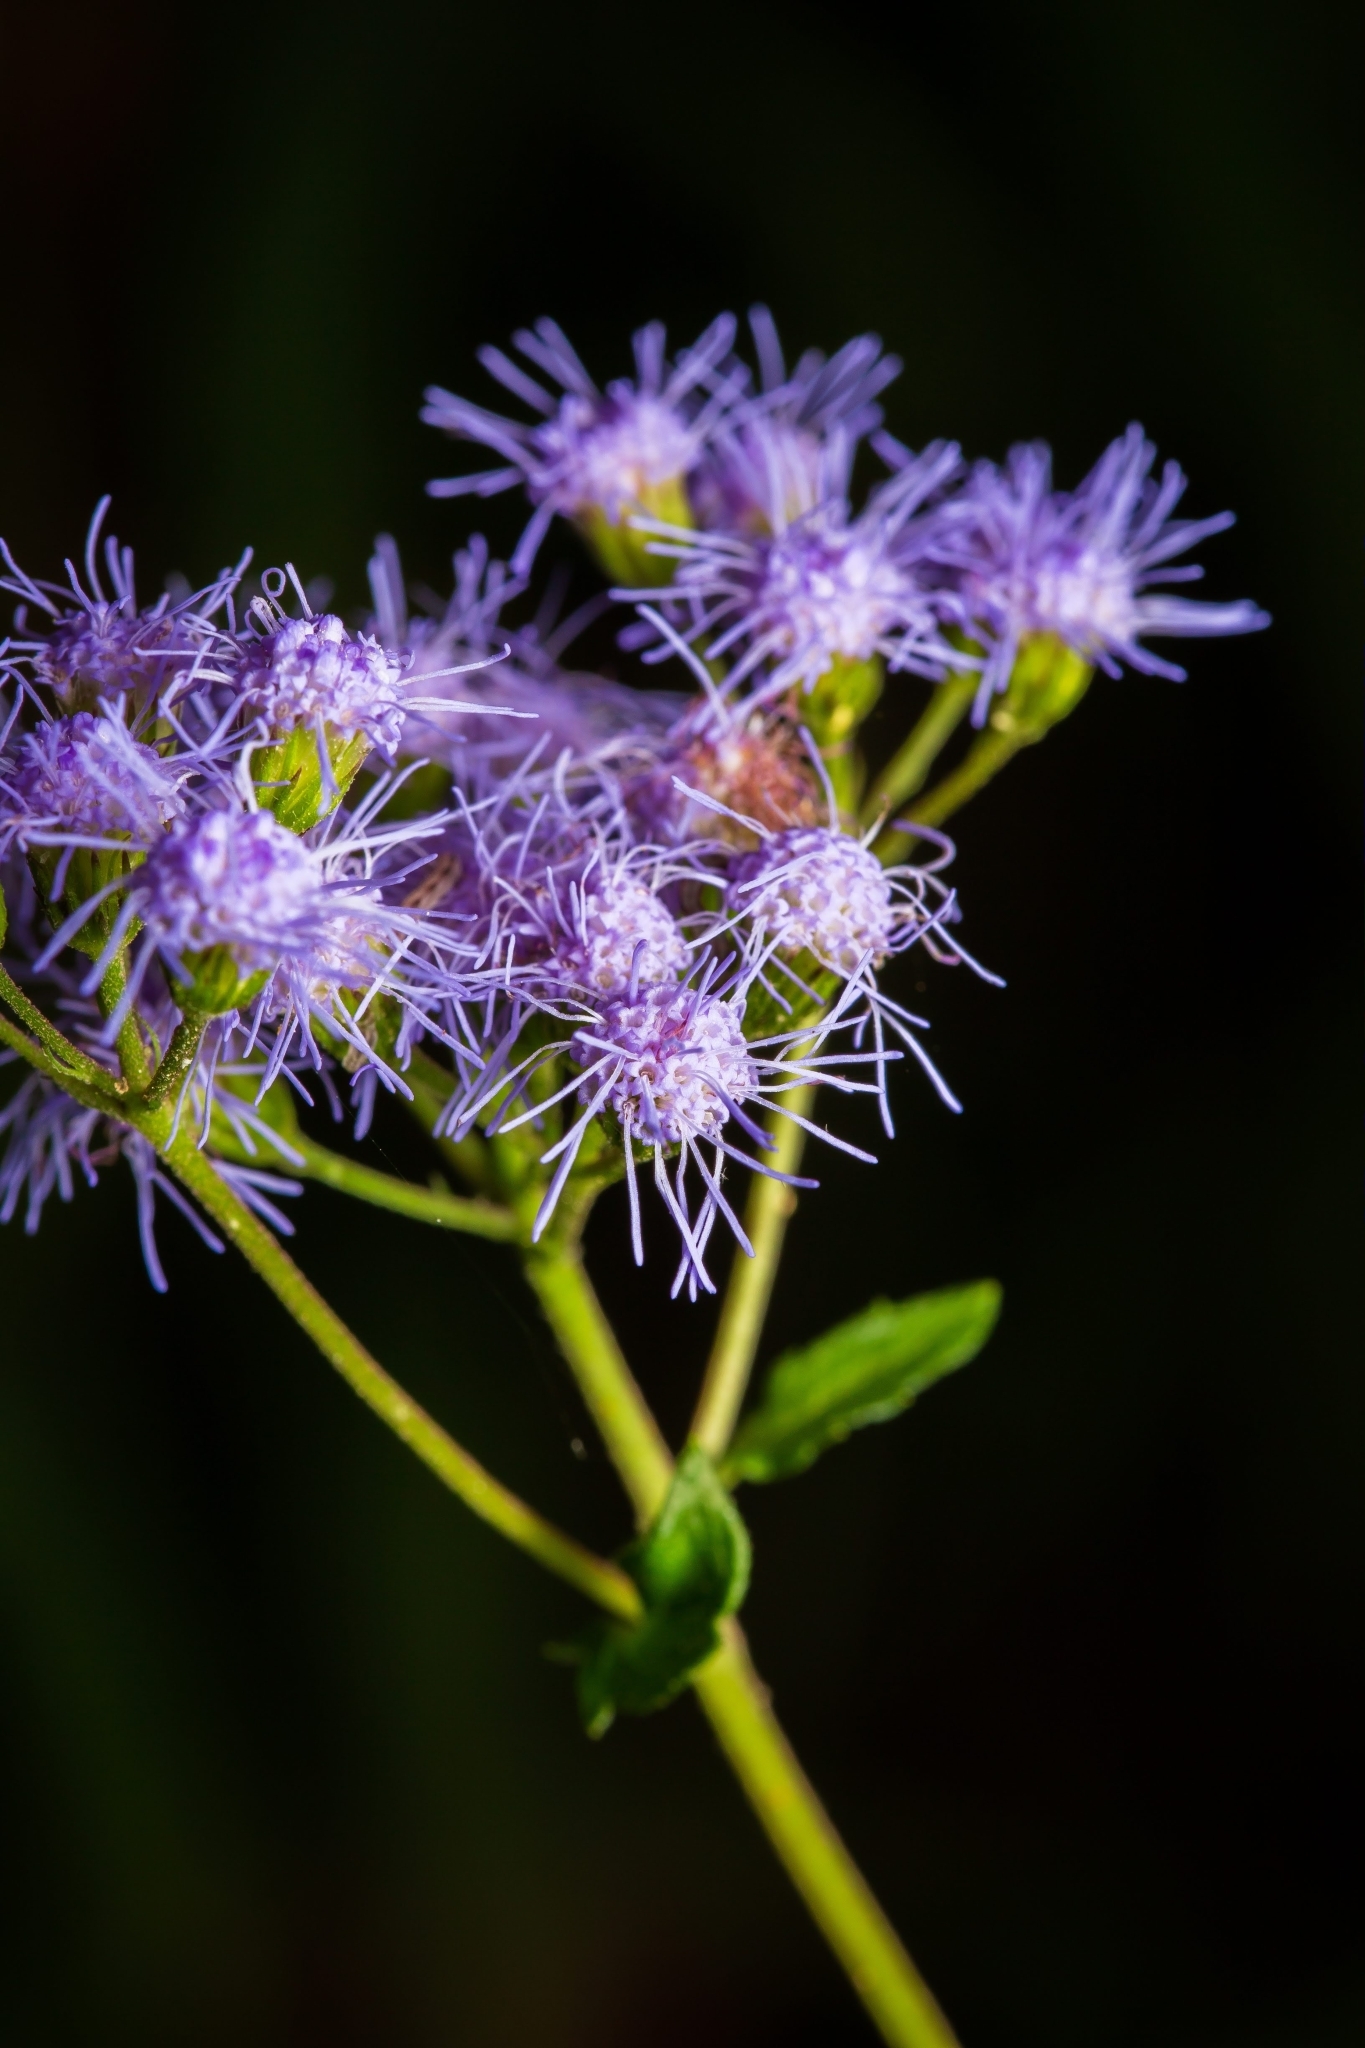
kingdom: Plantae
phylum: Tracheophyta
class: Magnoliopsida
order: Asterales
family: Asteraceae
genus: Conoclinium
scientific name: Conoclinium coelestinum
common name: Blue mistflower
